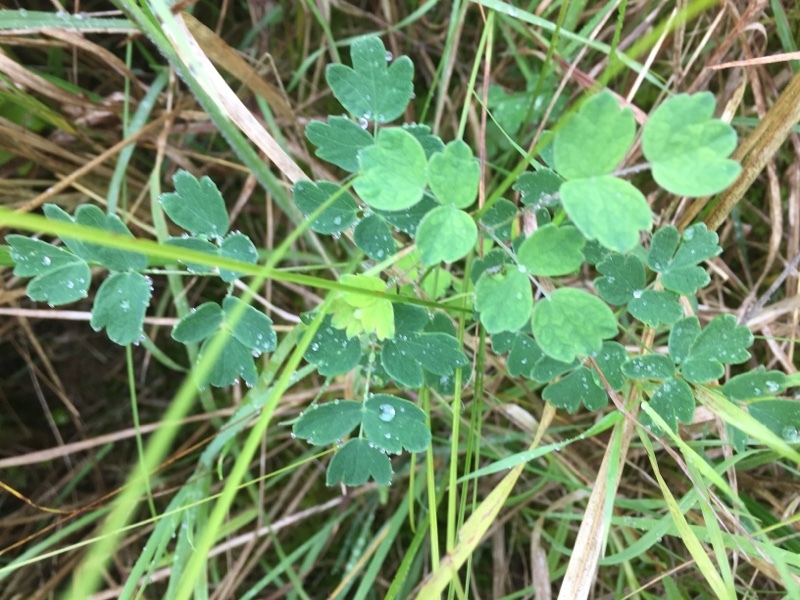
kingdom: Plantae
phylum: Tracheophyta
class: Magnoliopsida
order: Ranunculales
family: Ranunculaceae
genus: Thalictrum
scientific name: Thalictrum minus
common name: Lesser meadow-rue
